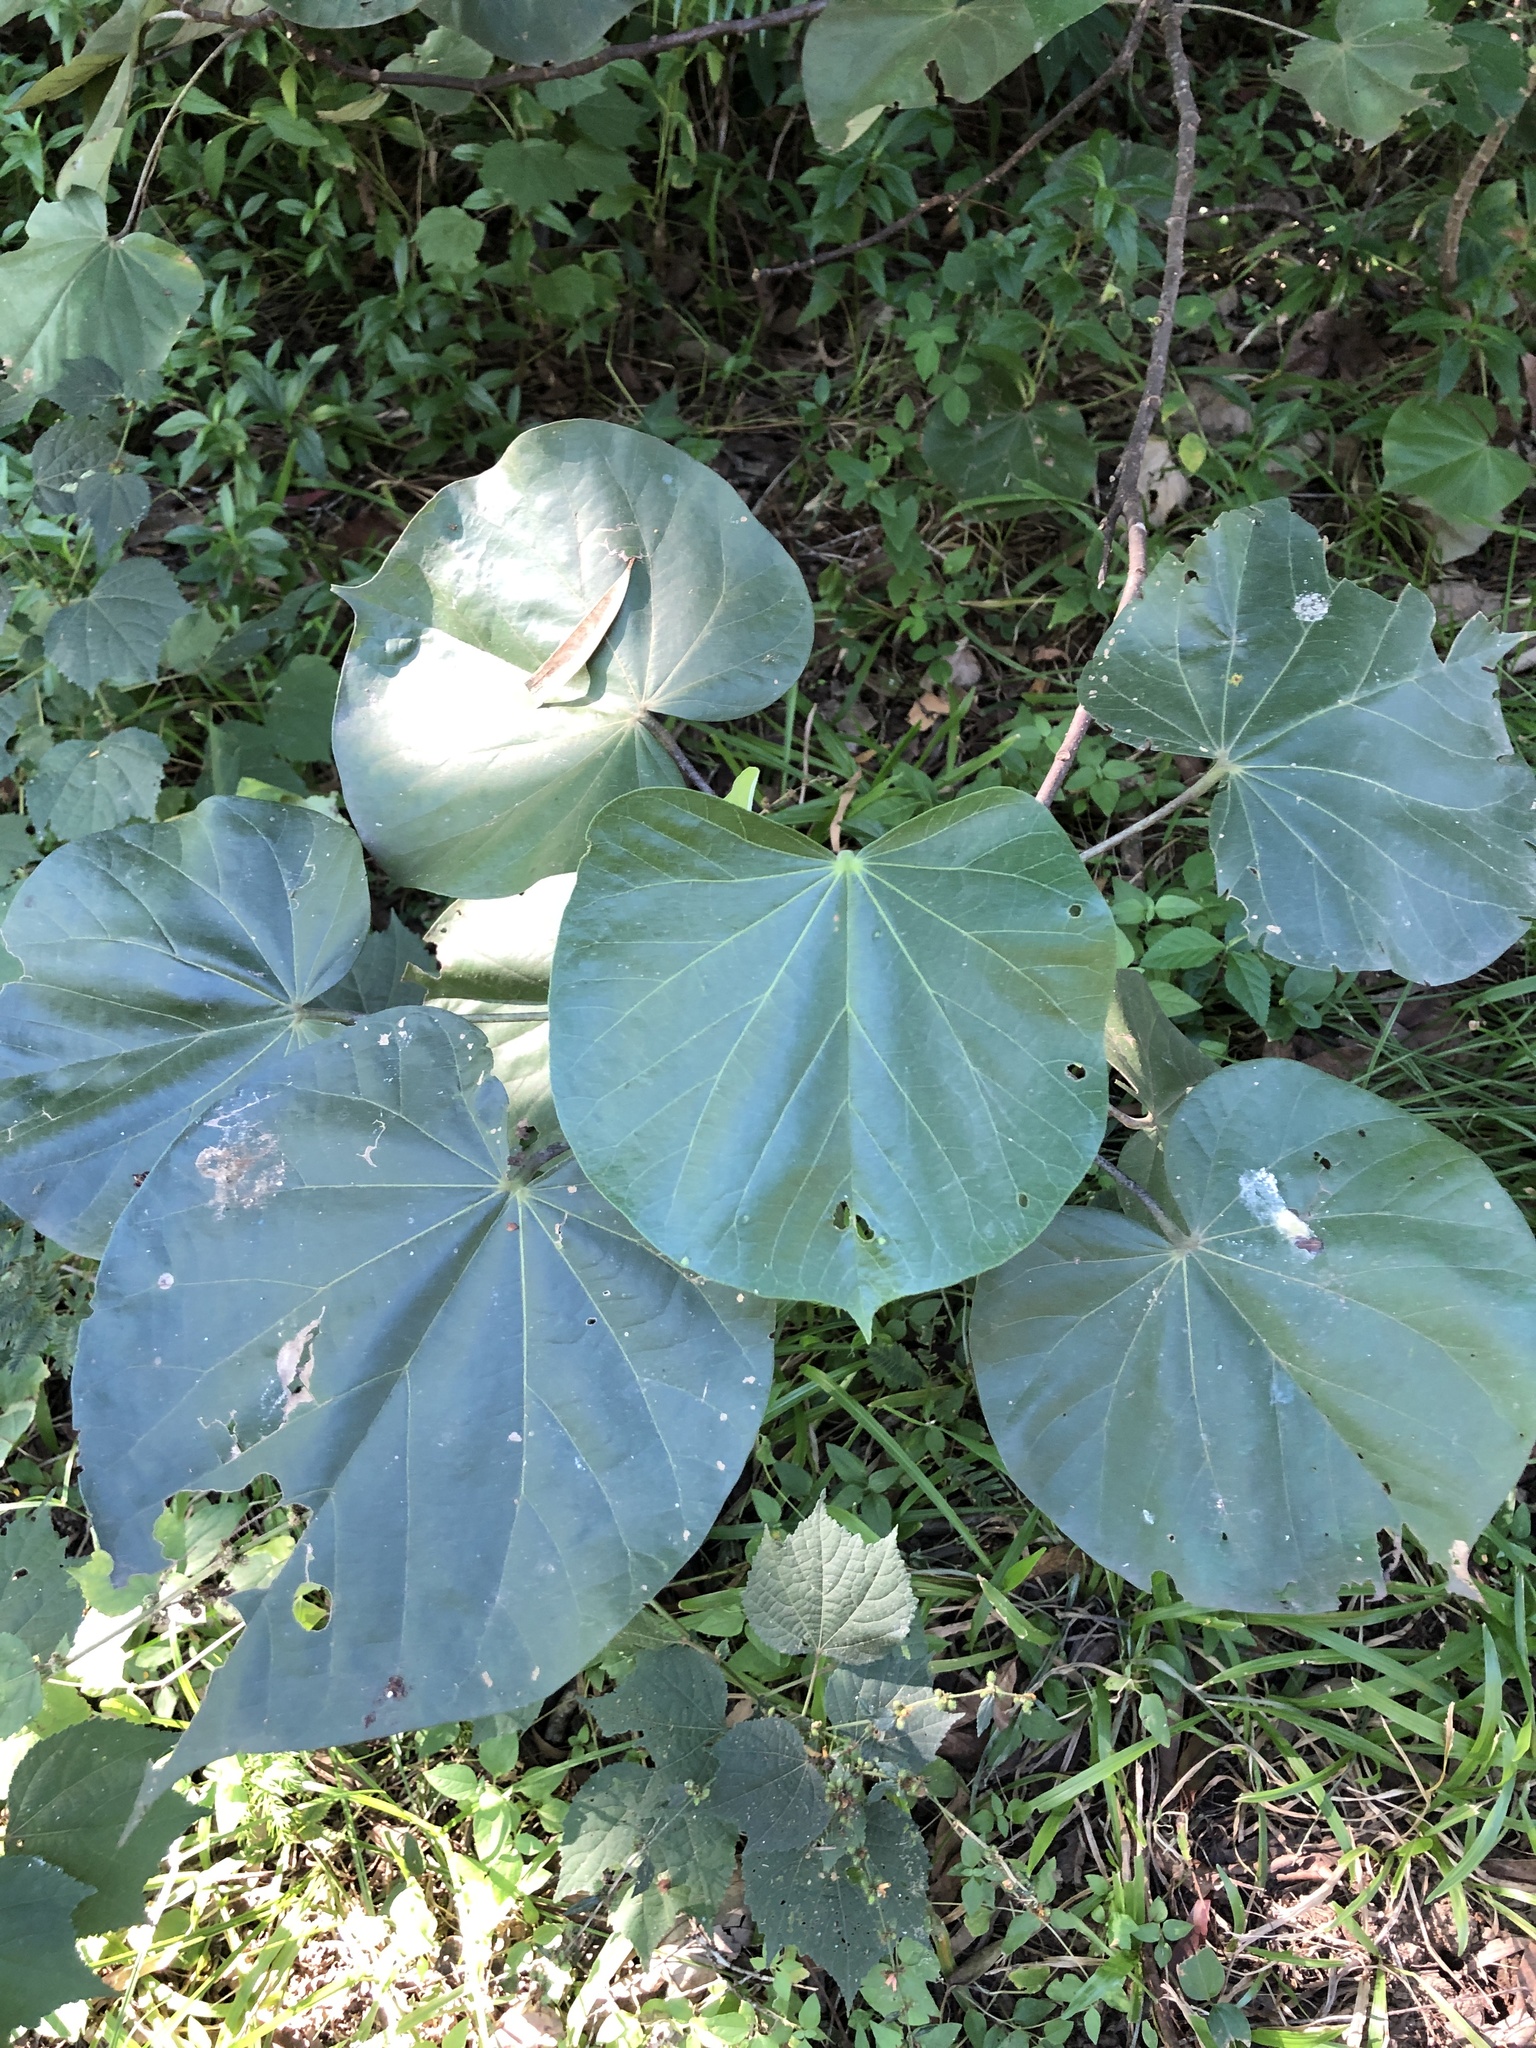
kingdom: Plantae
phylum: Tracheophyta
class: Magnoliopsida
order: Malvales
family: Malvaceae
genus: Talipariti
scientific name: Talipariti tiliaceum
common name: Sea hibiscus
